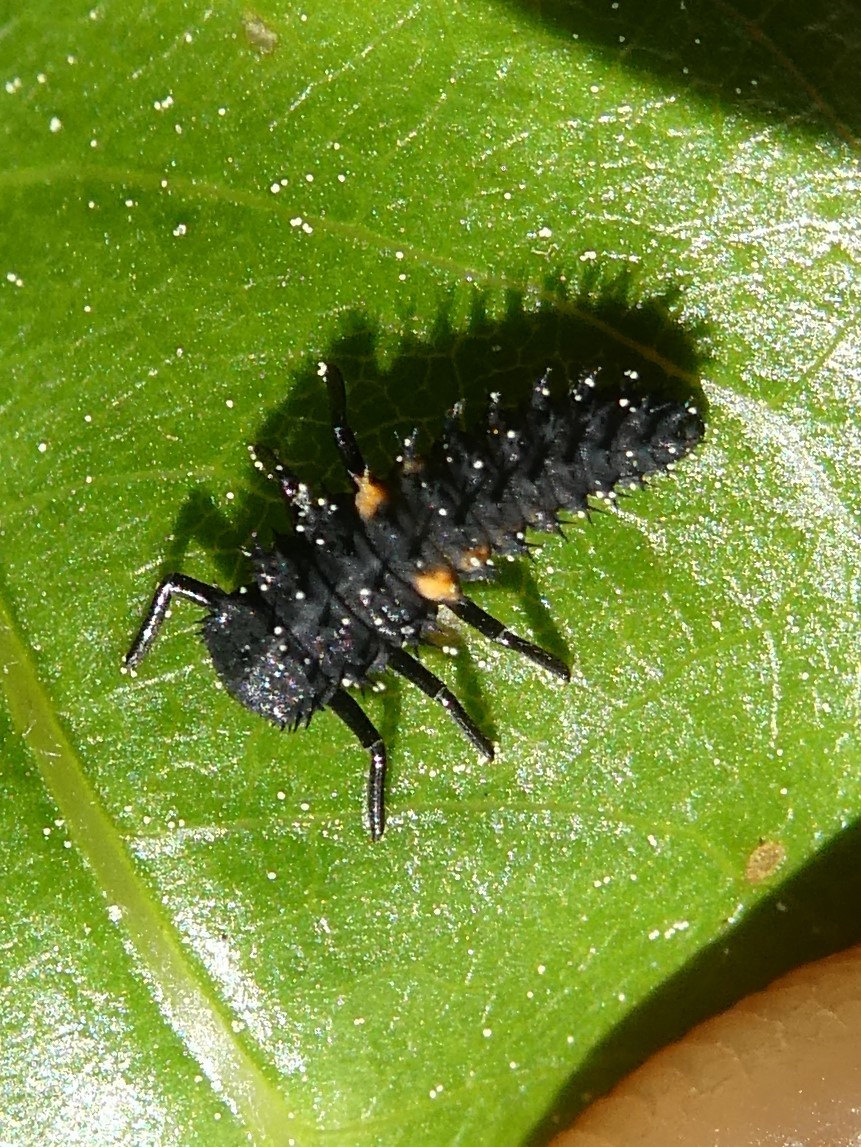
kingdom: Animalia
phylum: Arthropoda
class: Insecta
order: Coleoptera
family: Coccinellidae
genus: Harmonia
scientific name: Harmonia axyridis
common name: Harlequin ladybird
